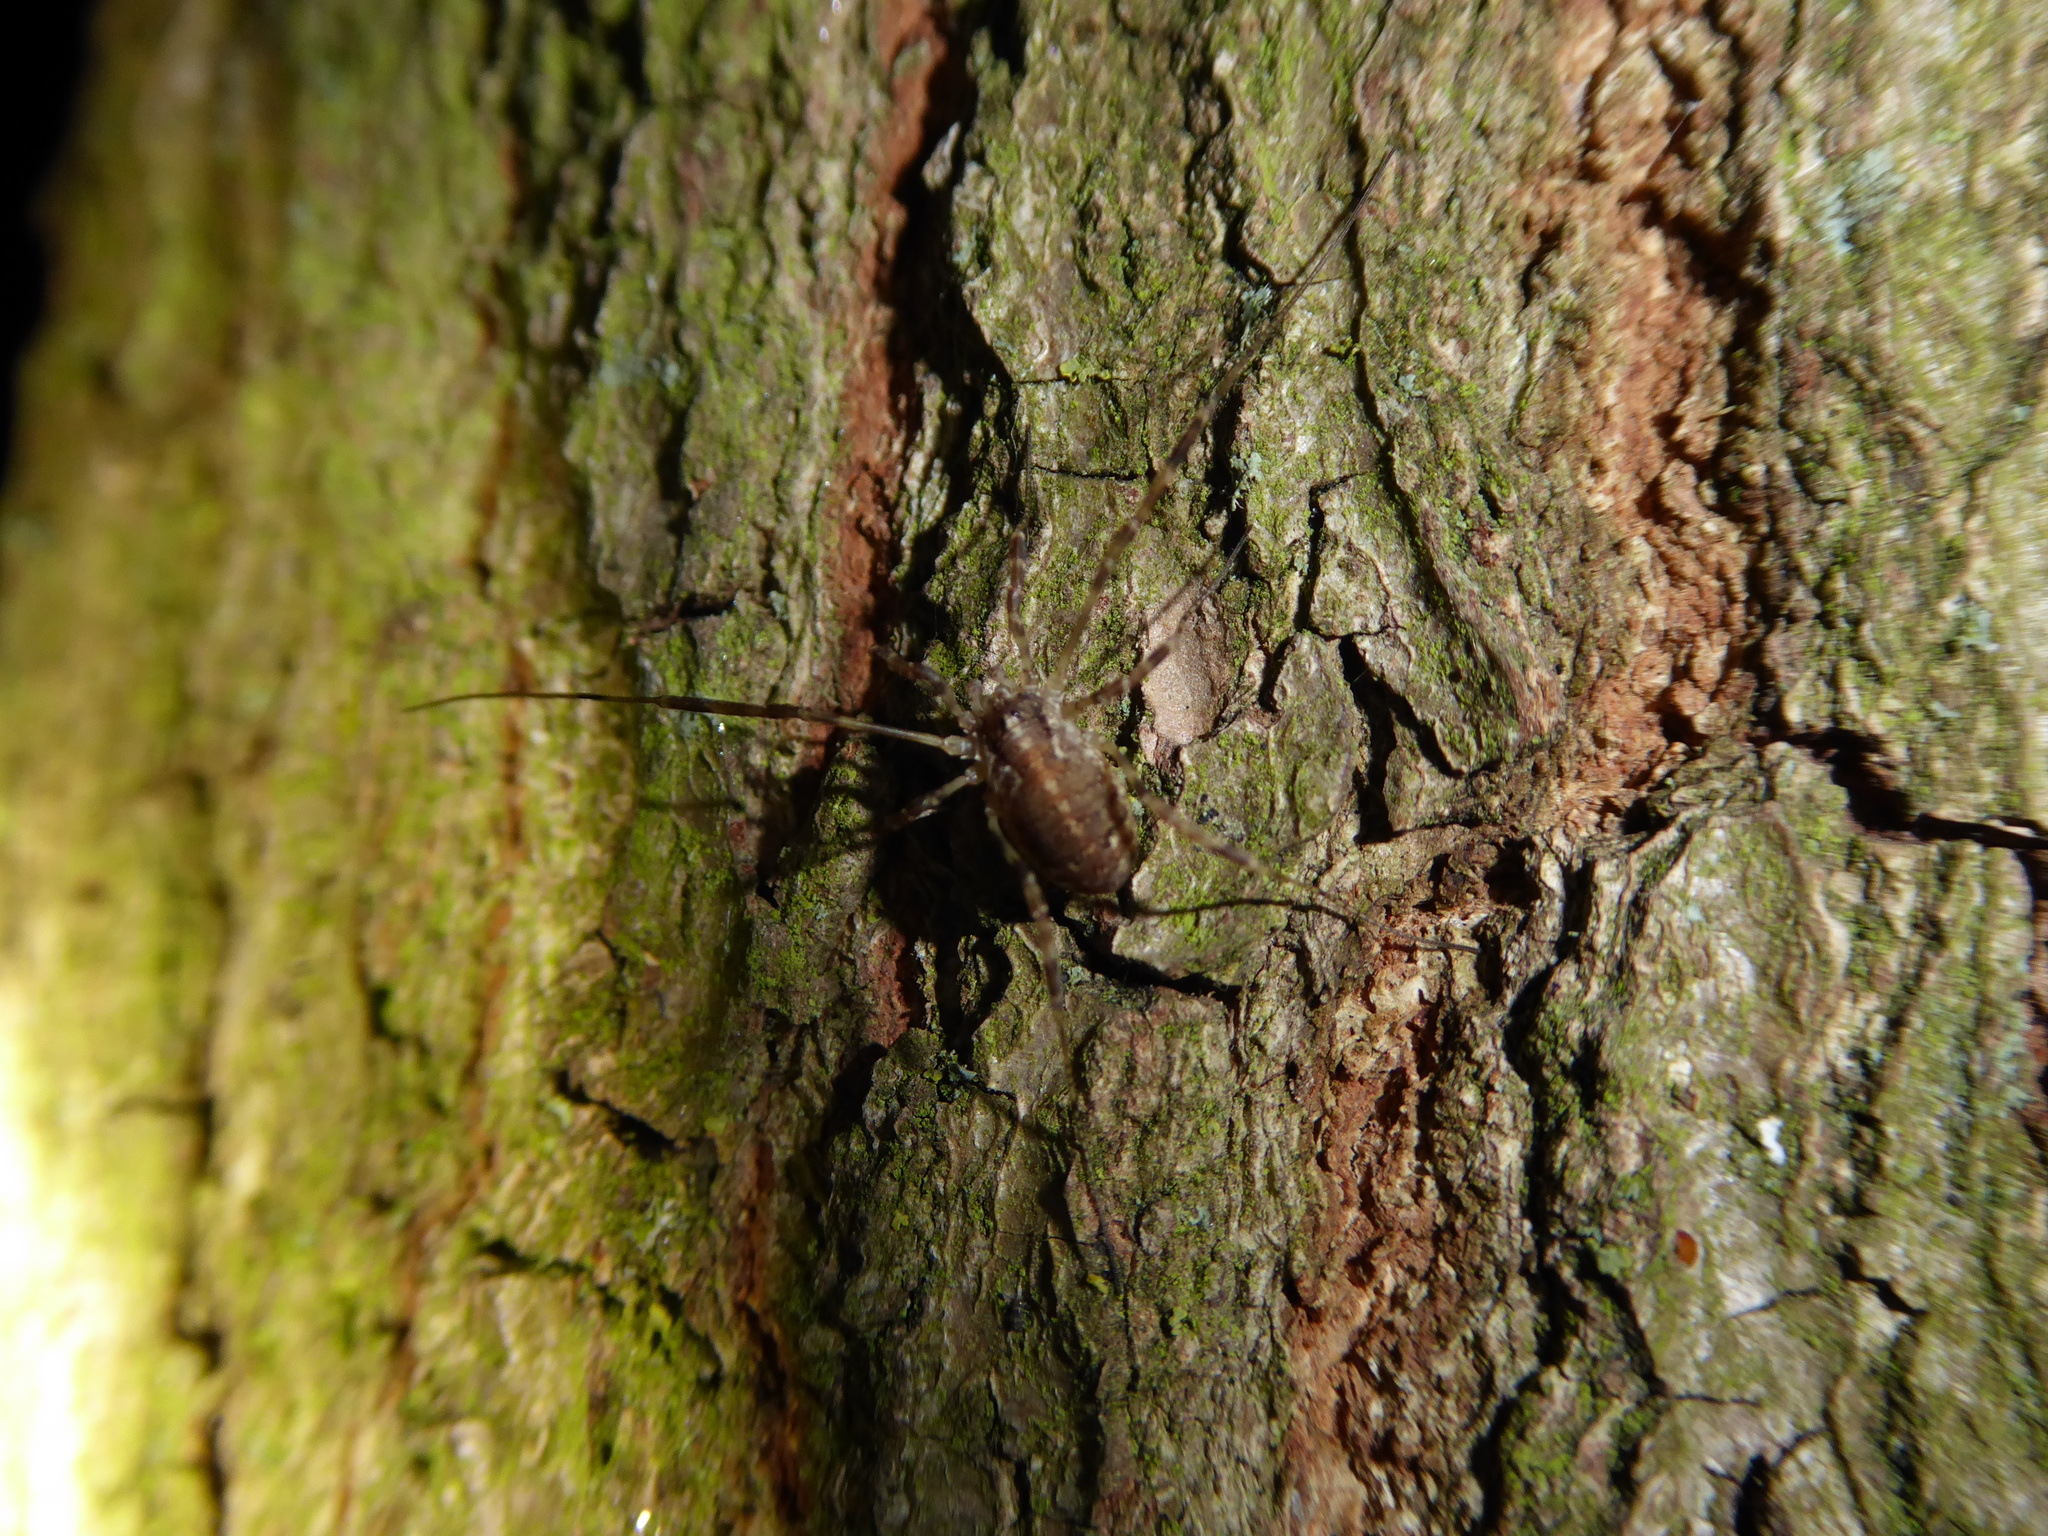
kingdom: Animalia
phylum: Arthropoda
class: Arachnida
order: Opiliones
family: Phalangiidae
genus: Paroligolophus
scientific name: Paroligolophus agrestis
